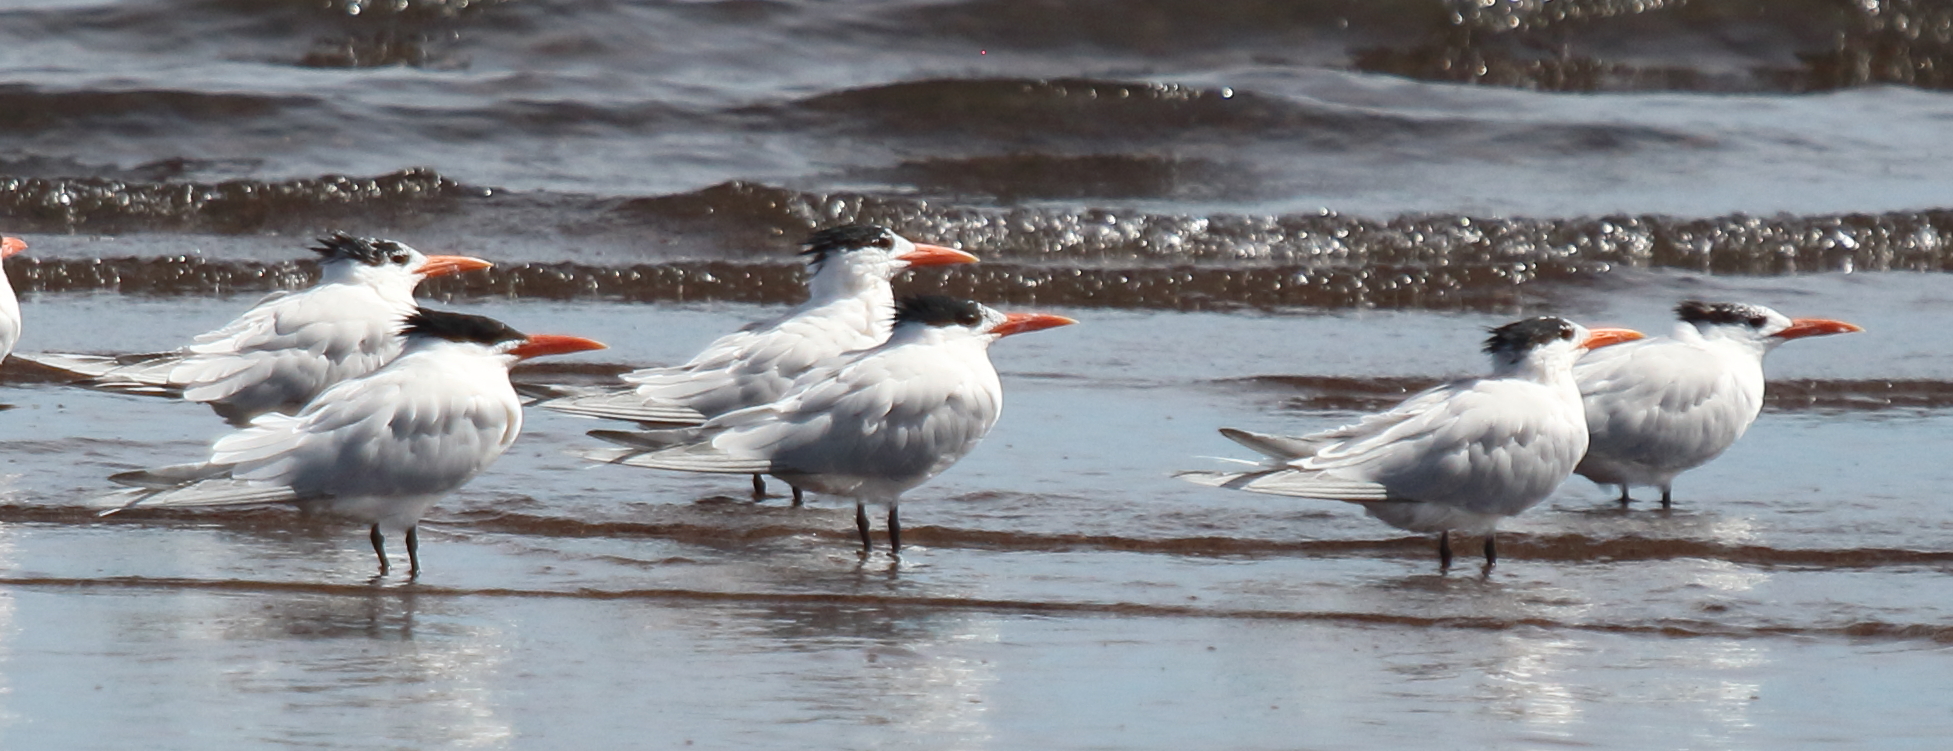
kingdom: Animalia
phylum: Chordata
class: Aves
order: Charadriiformes
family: Laridae
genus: Thalasseus
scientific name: Thalasseus maximus
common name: Royal tern
